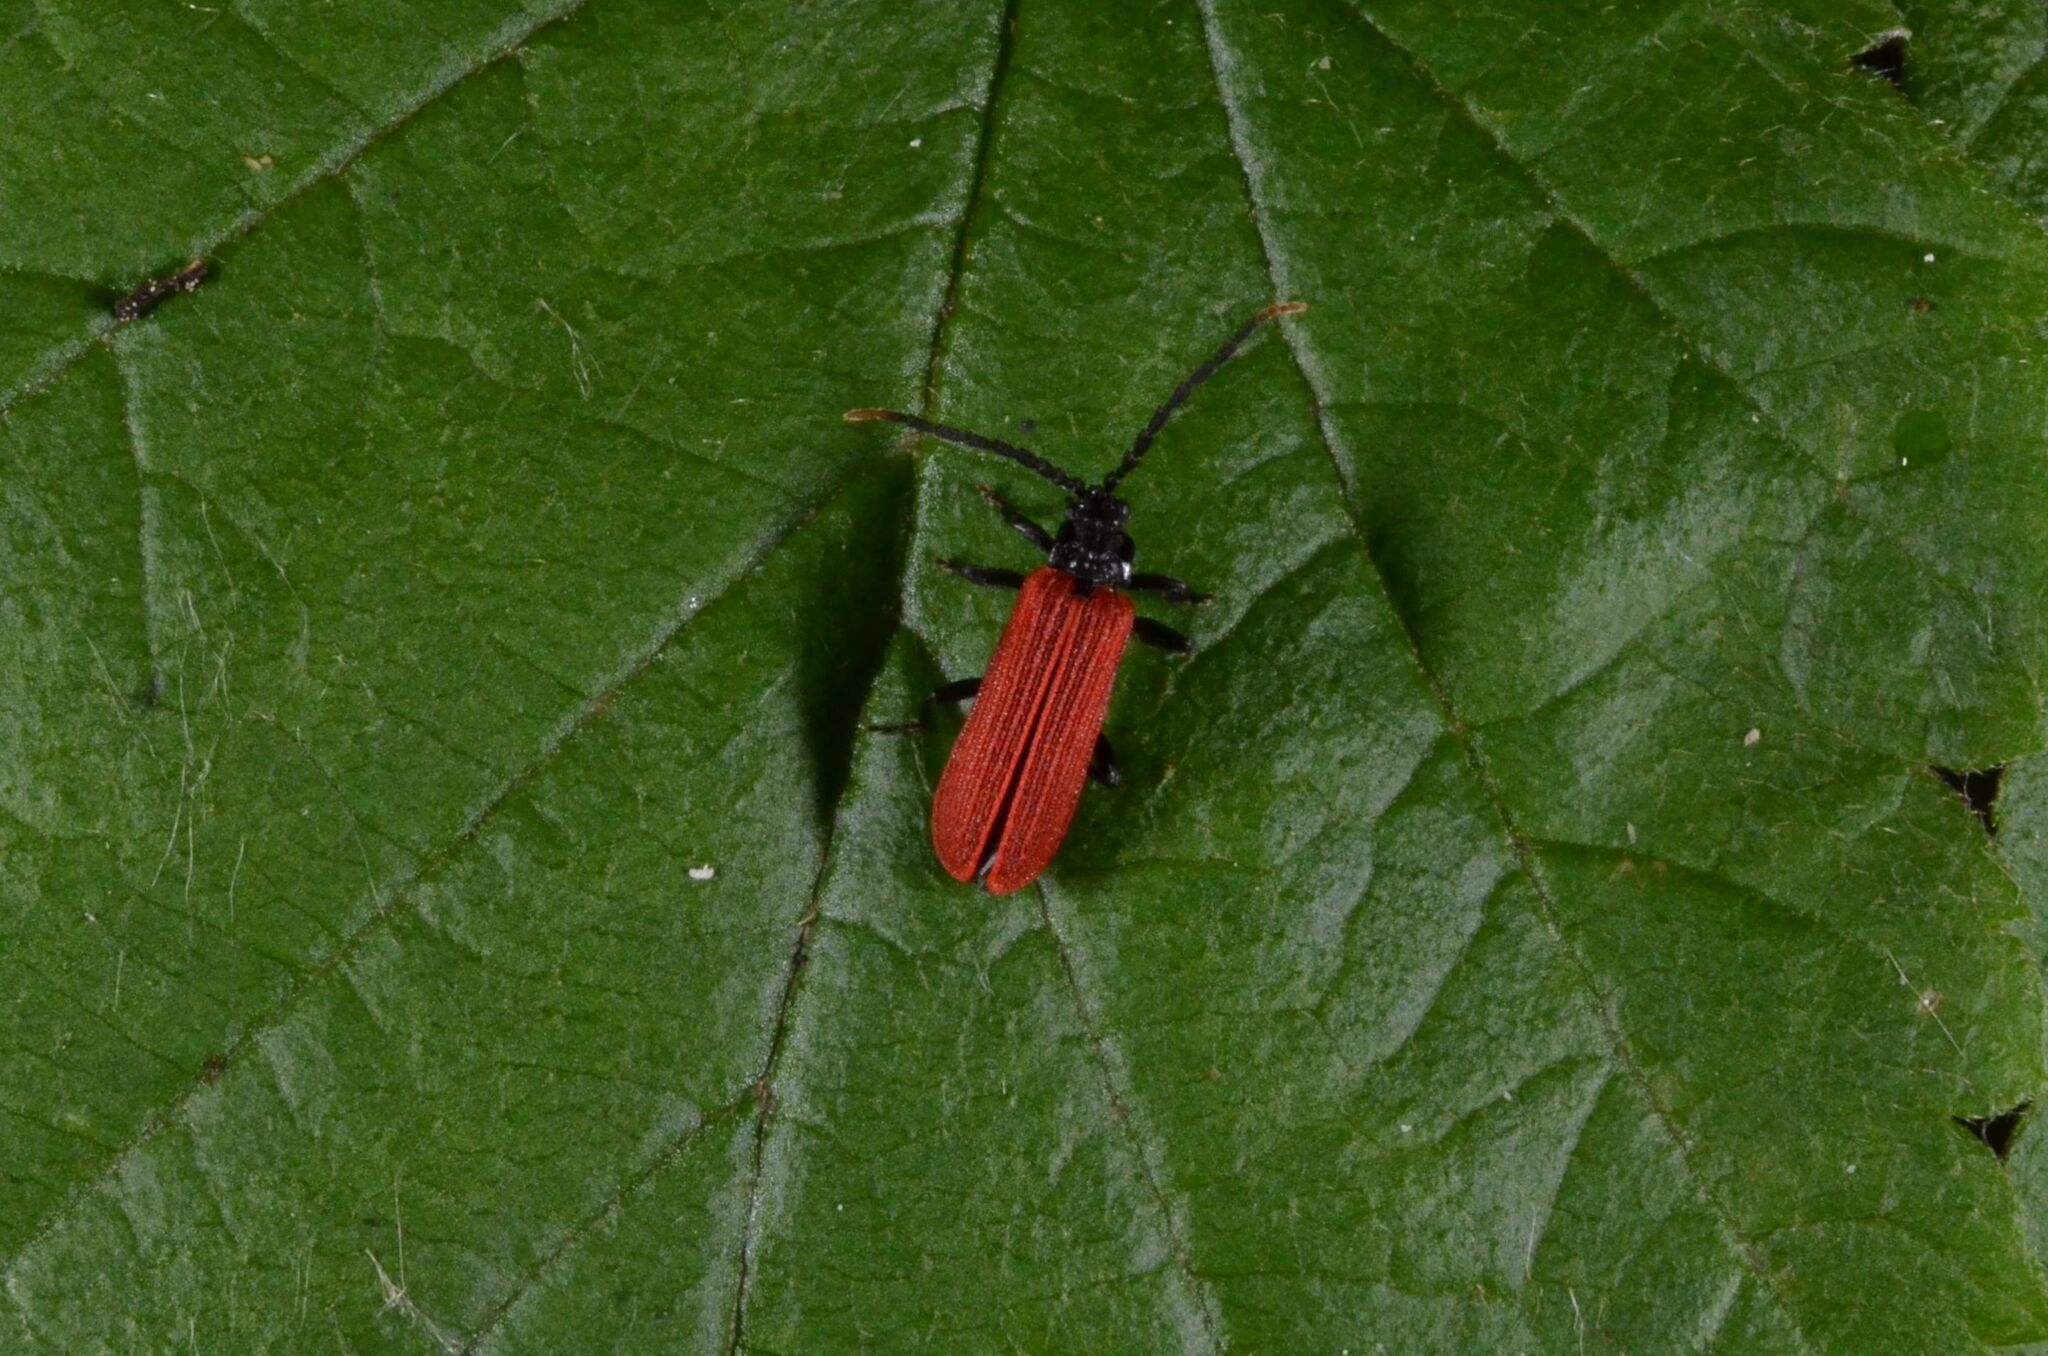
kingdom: Animalia
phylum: Arthropoda
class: Insecta
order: Coleoptera
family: Lycidae
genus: Platycis
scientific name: Platycis minutus
